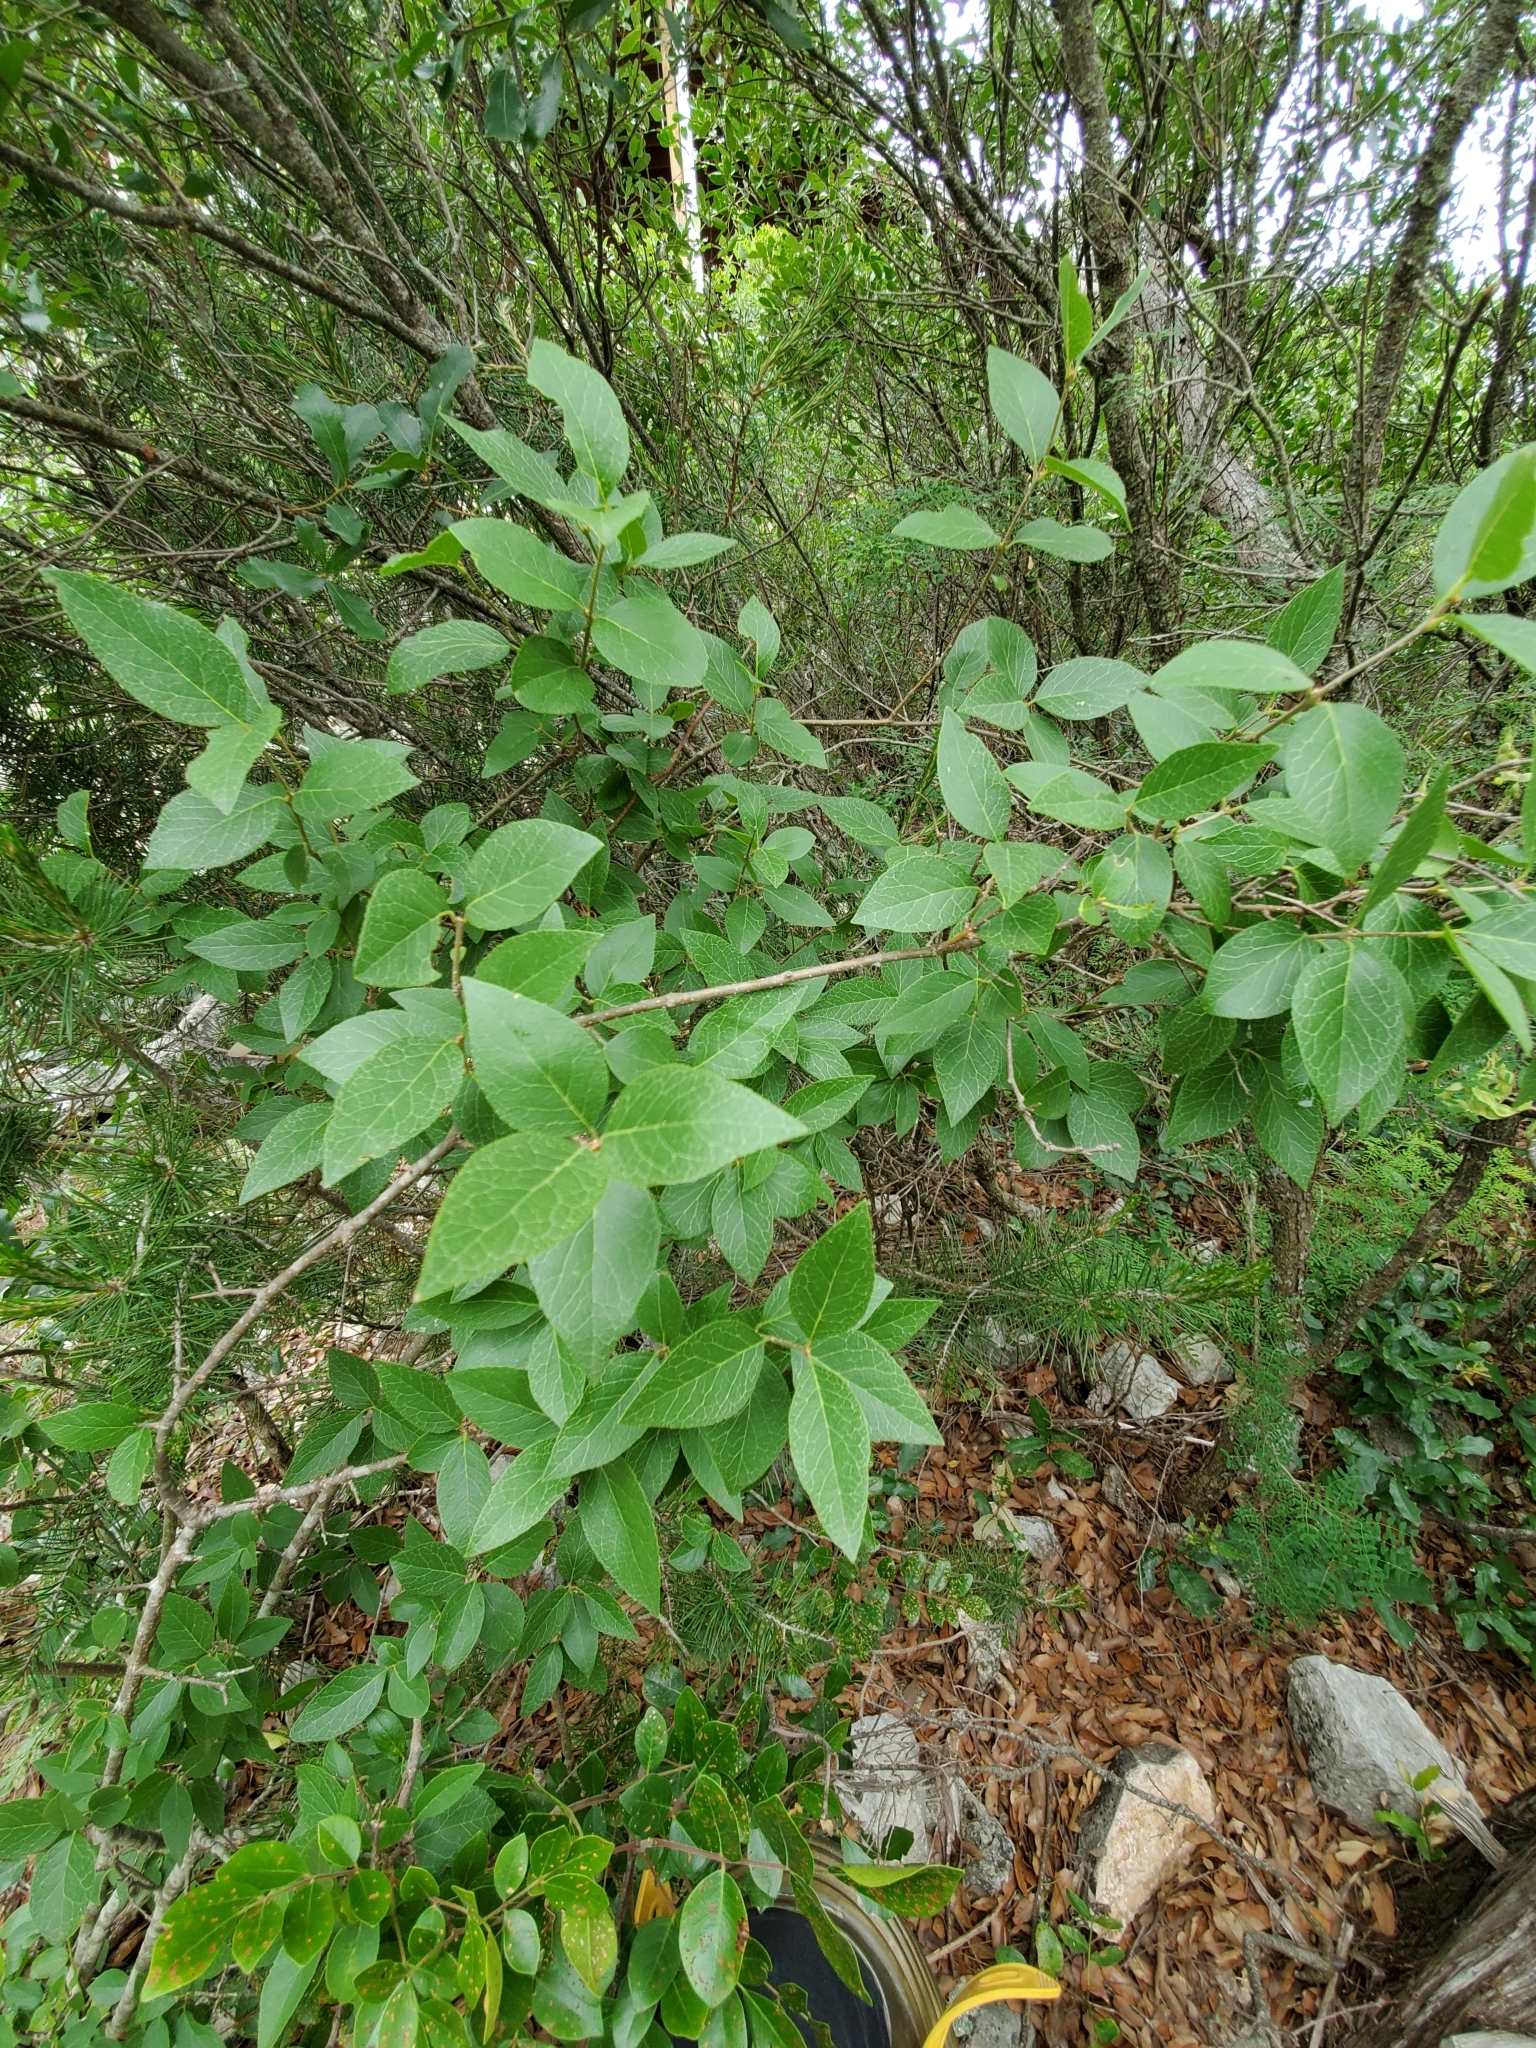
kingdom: Plantae
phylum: Tracheophyta
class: Magnoliopsida
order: Lamiales
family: Oleaceae
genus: Forestiera
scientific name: Forestiera reticulata
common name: Netleaf swamp-privet
